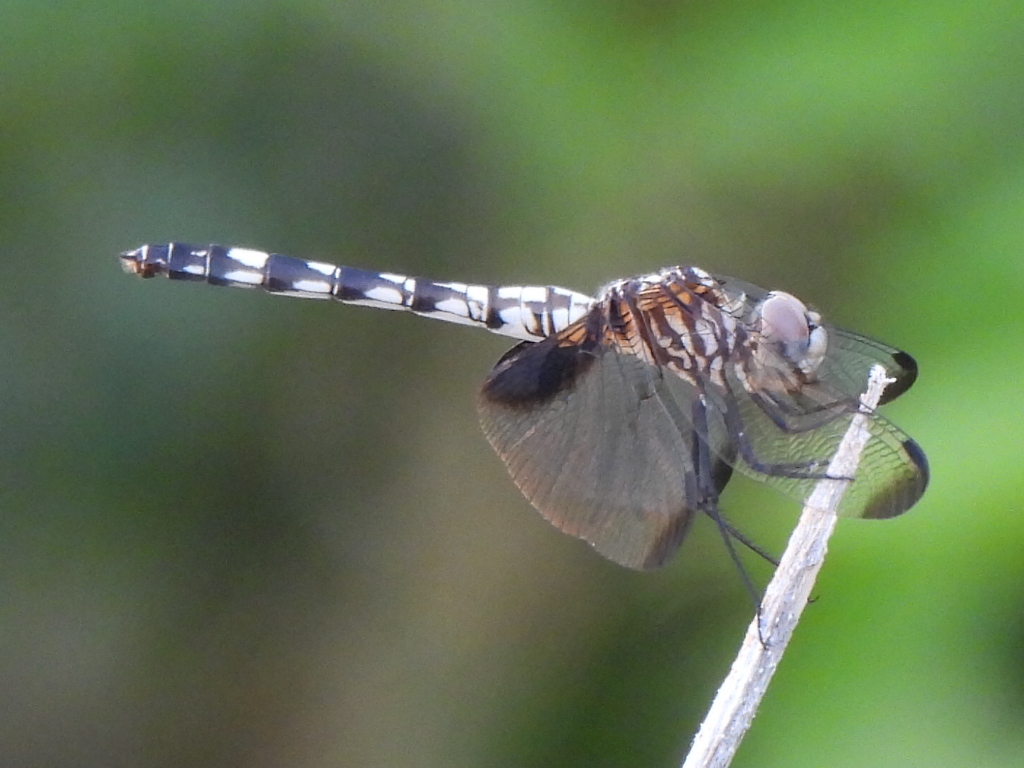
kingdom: Animalia
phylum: Arthropoda
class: Insecta
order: Odonata
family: Libellulidae
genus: Dythemis
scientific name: Dythemis fugax
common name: Checkered setwing
